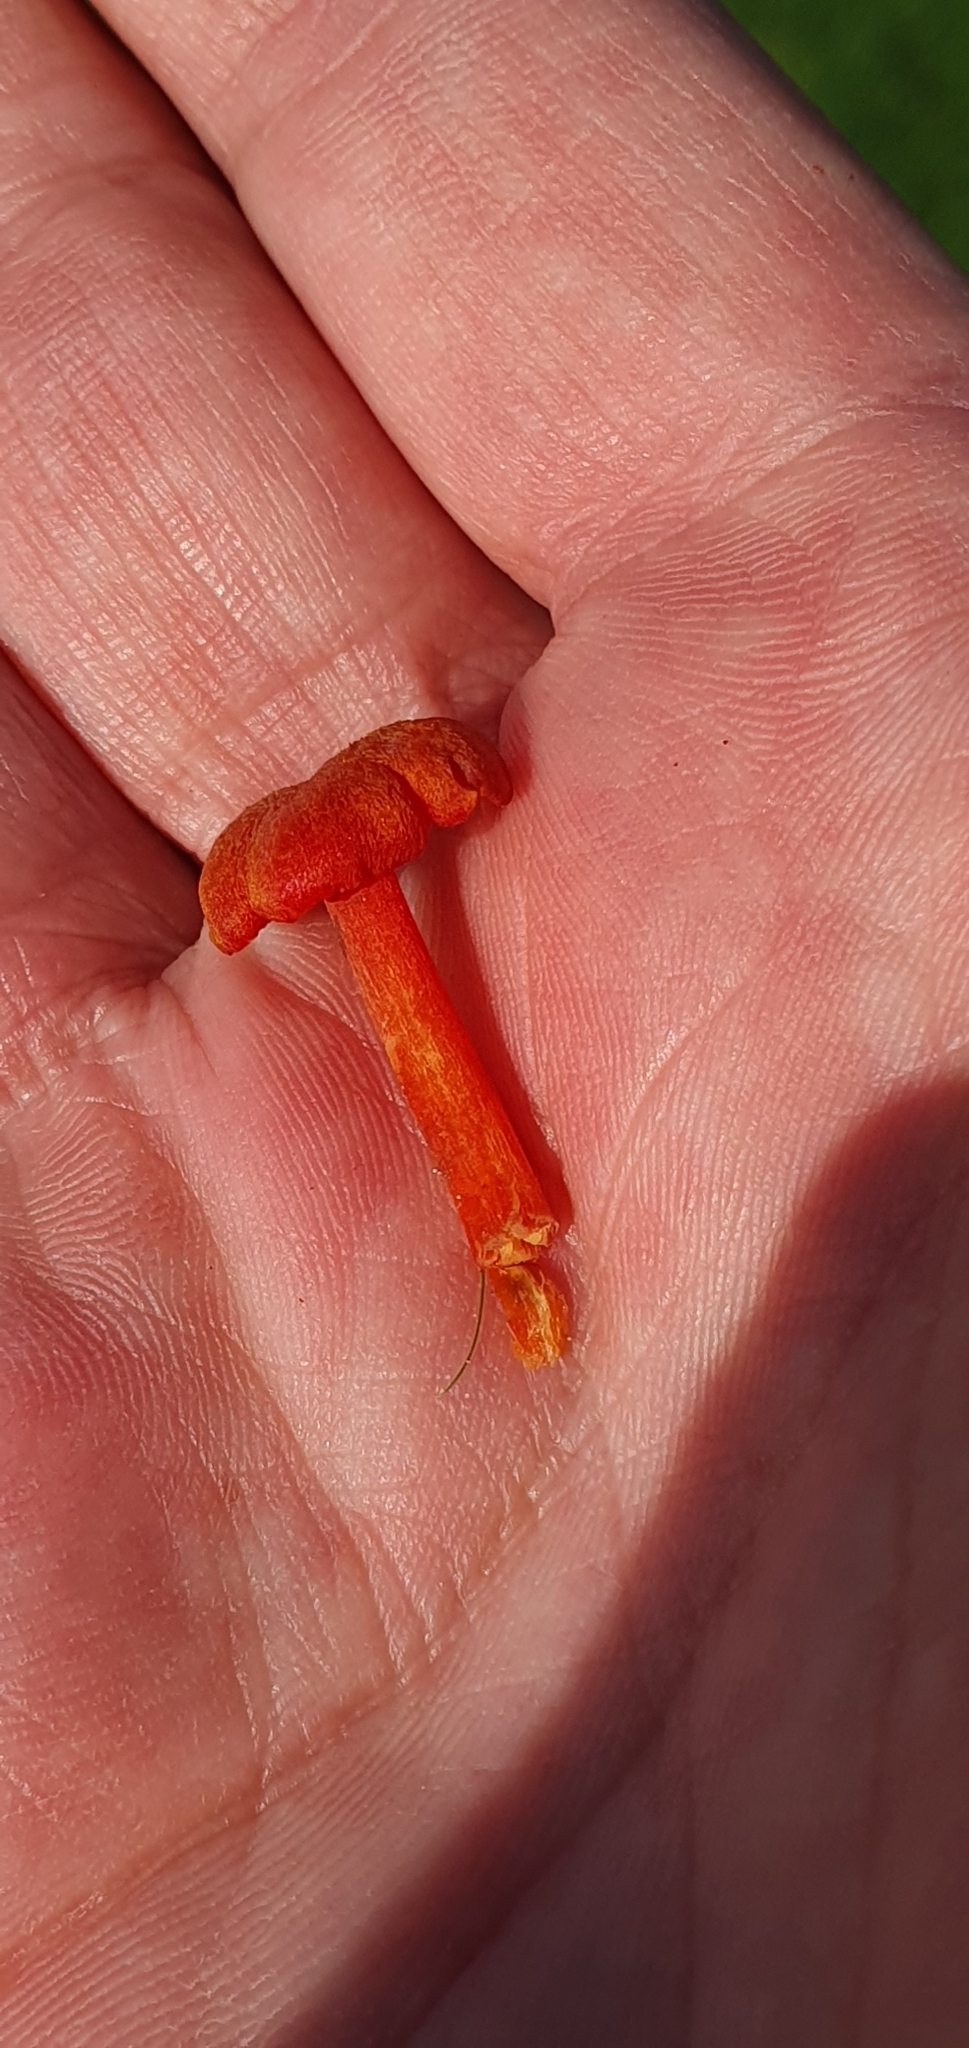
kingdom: Fungi
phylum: Basidiomycota
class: Agaricomycetes
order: Agaricales
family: Hygrophoraceae
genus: Hygrocybe
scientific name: Hygrocybe helobia
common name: Garlic waxcap
